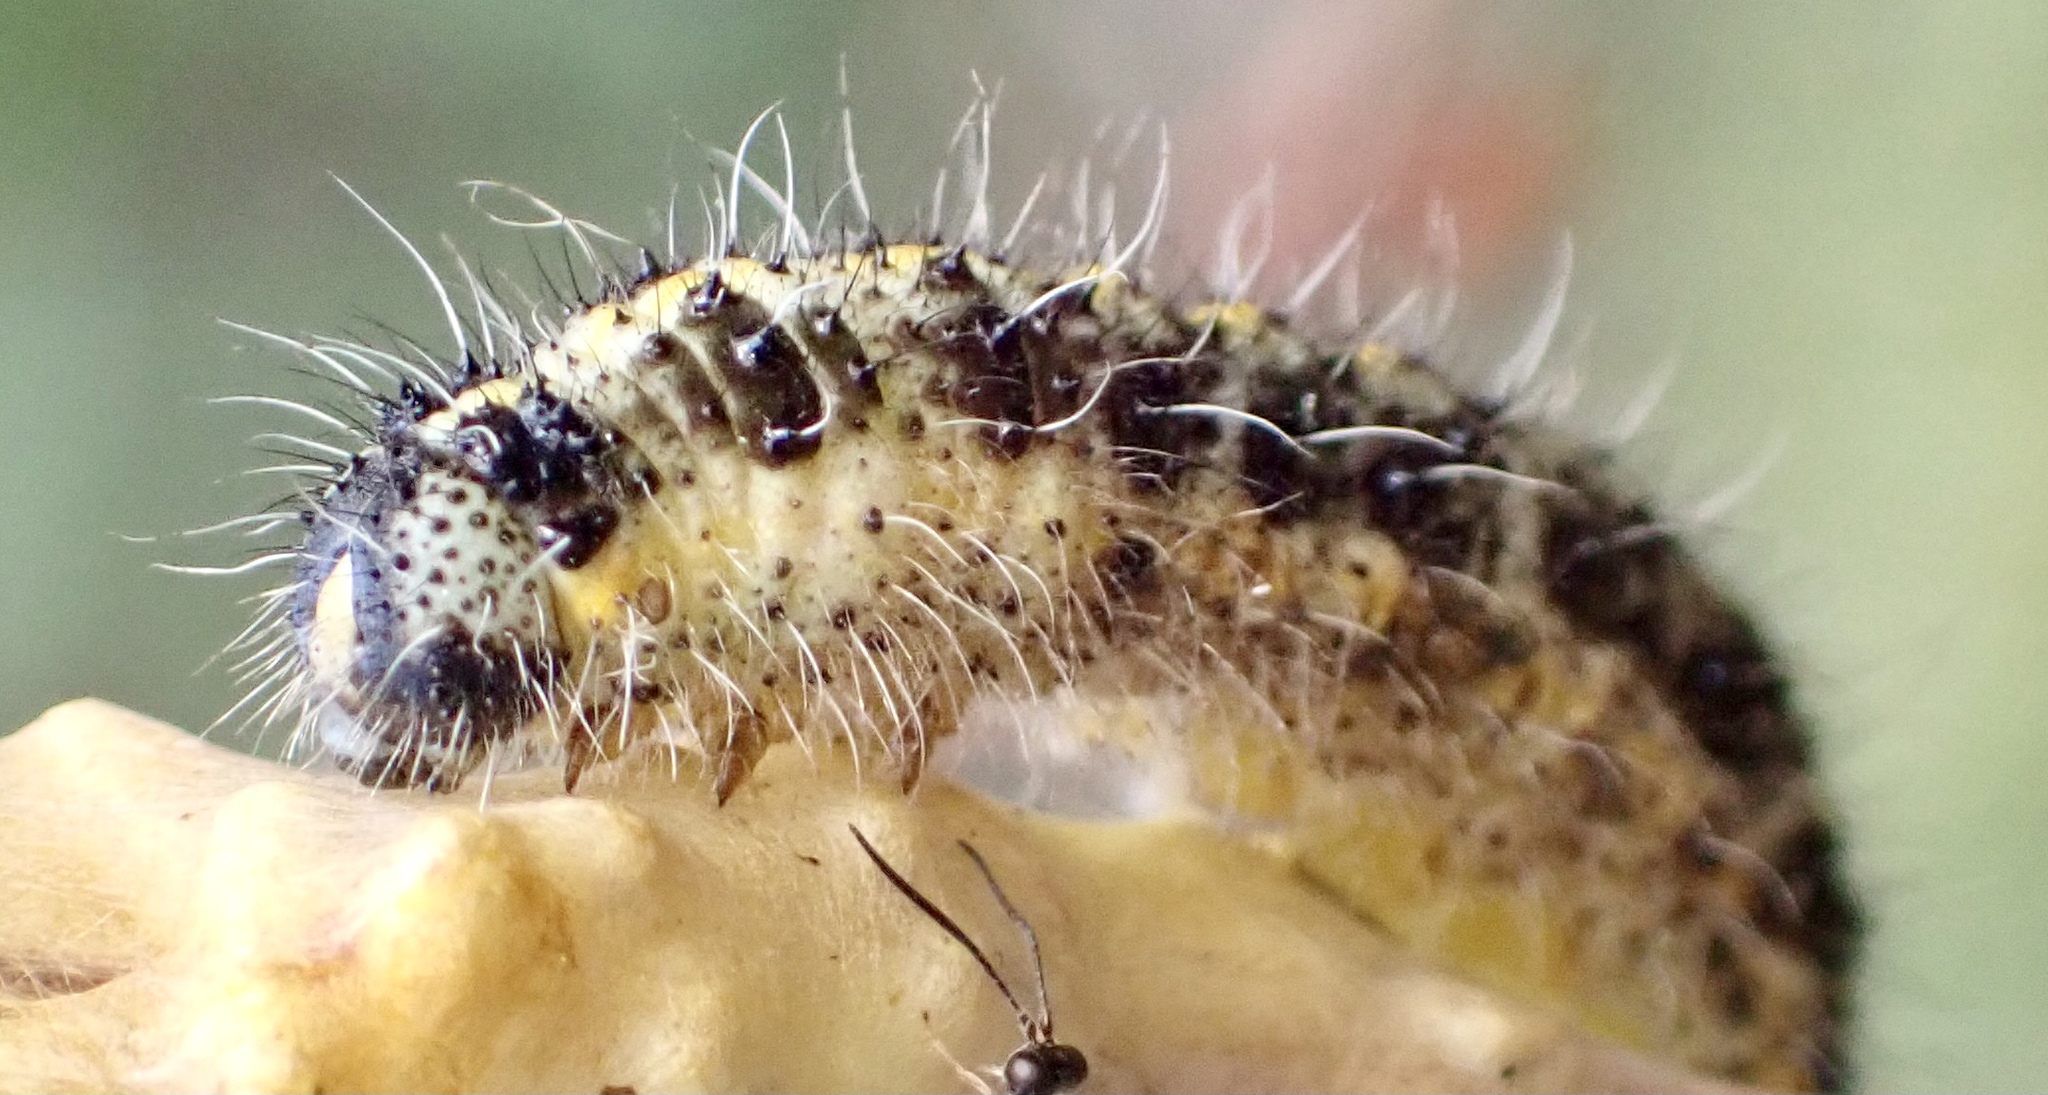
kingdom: Animalia
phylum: Arthropoda
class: Insecta
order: Lepidoptera
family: Pieridae
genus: Pieris
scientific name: Pieris brassicae
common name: Large white
